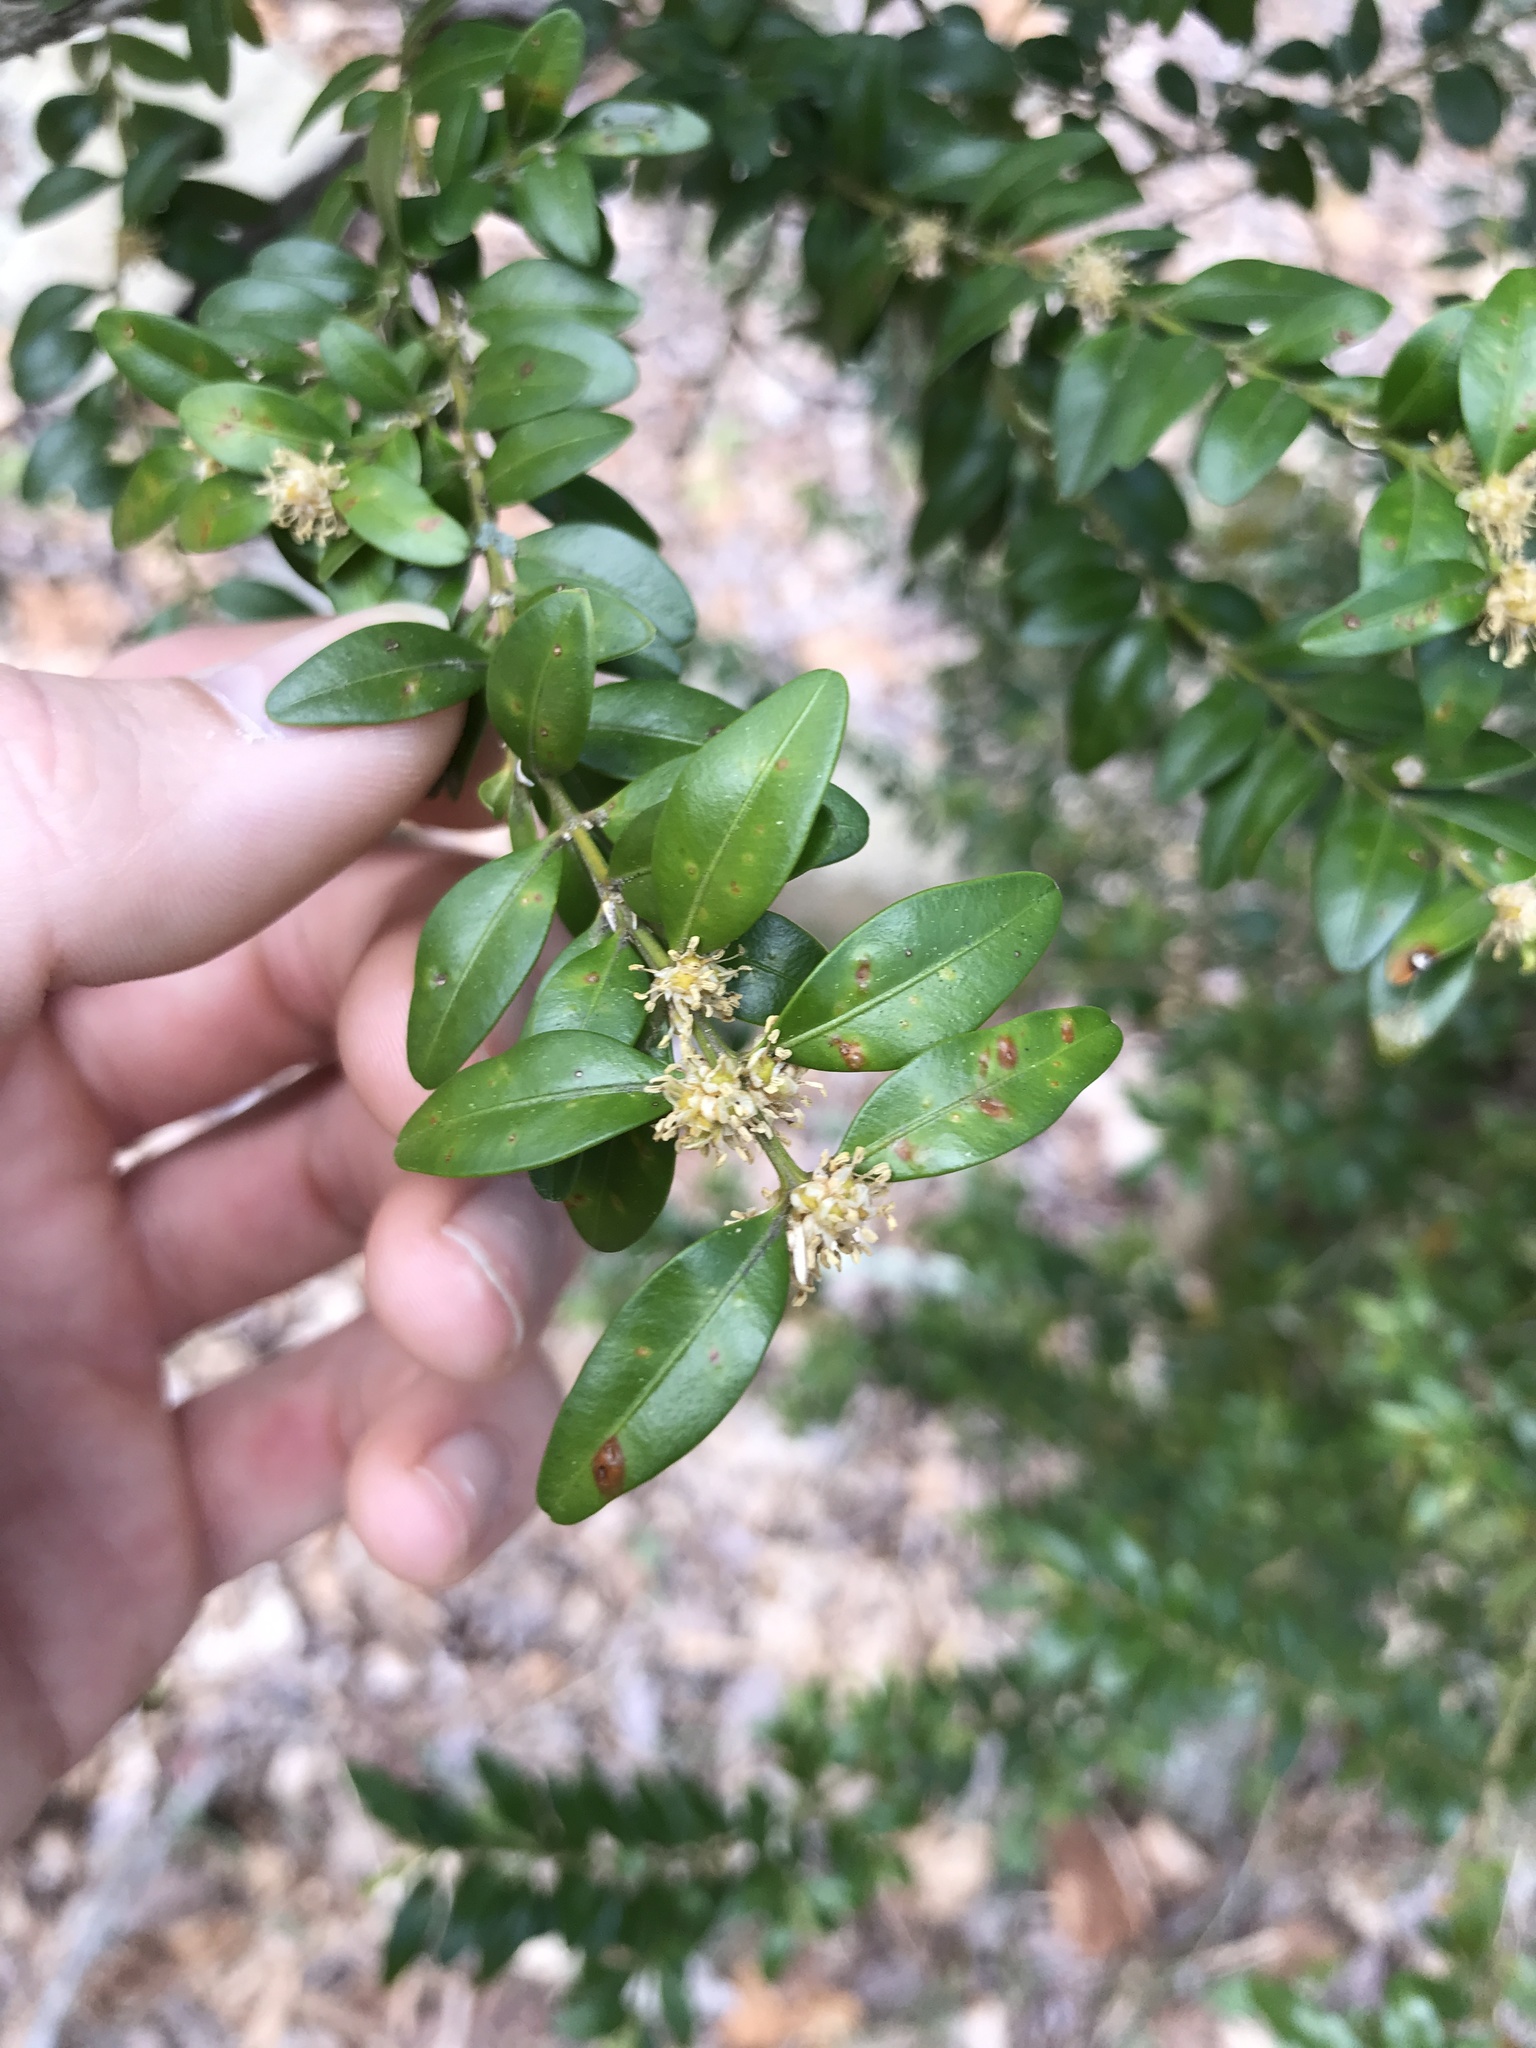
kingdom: Plantae
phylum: Tracheophyta
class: Magnoliopsida
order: Buxales
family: Buxaceae
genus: Buxus
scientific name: Buxus sempervirens
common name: Box
